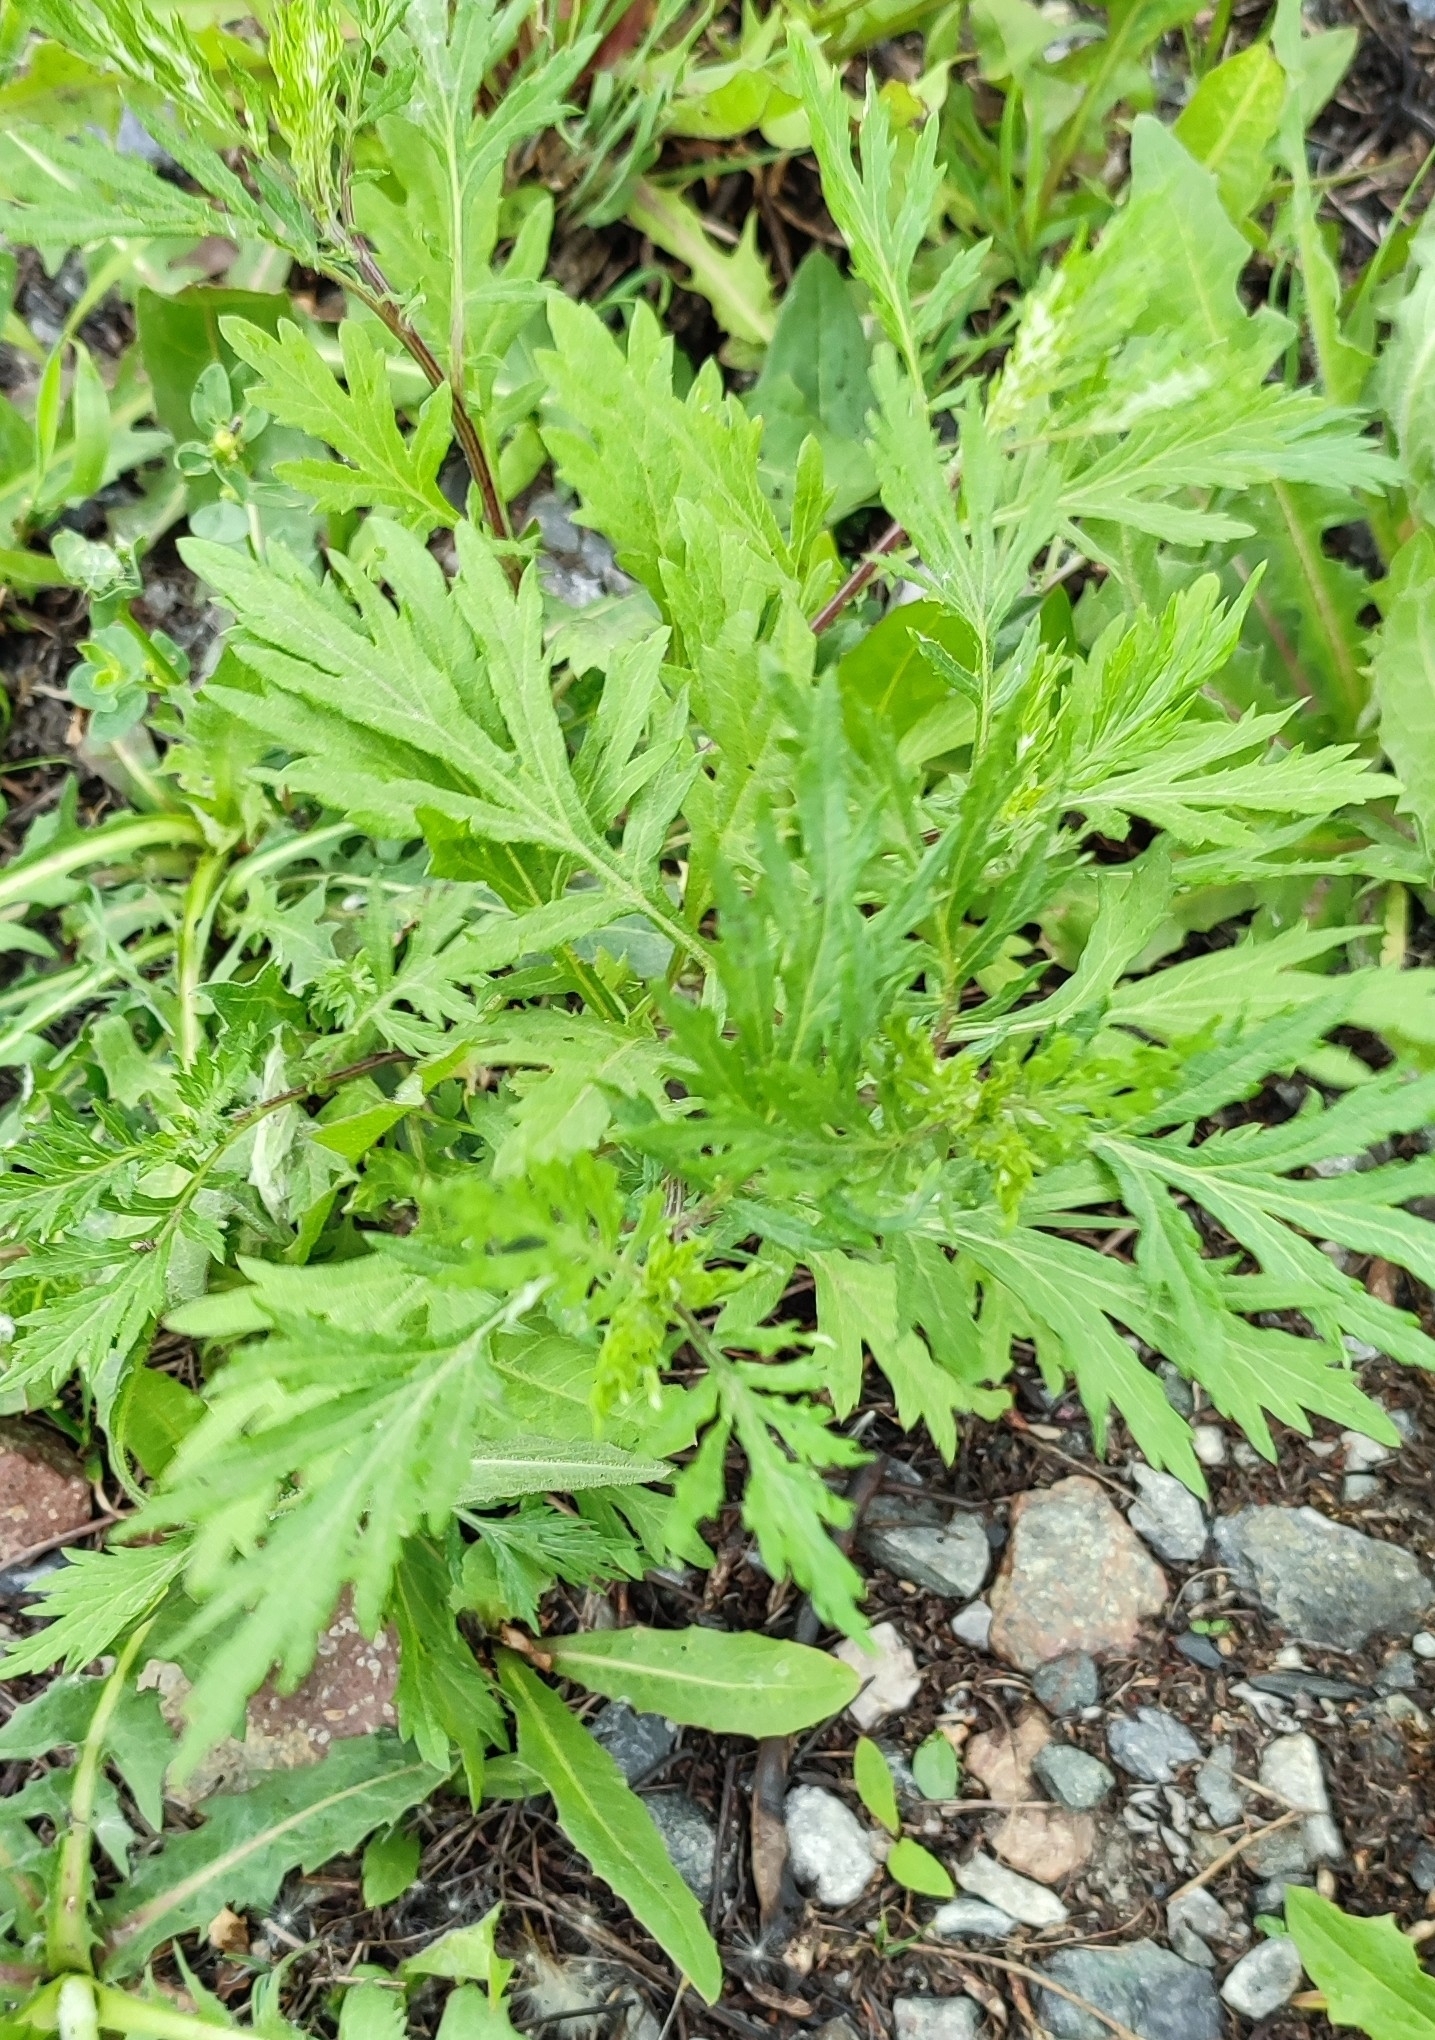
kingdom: Plantae
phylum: Tracheophyta
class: Magnoliopsida
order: Asterales
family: Asteraceae
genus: Artemisia
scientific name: Artemisia vulgaris
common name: Mugwort
